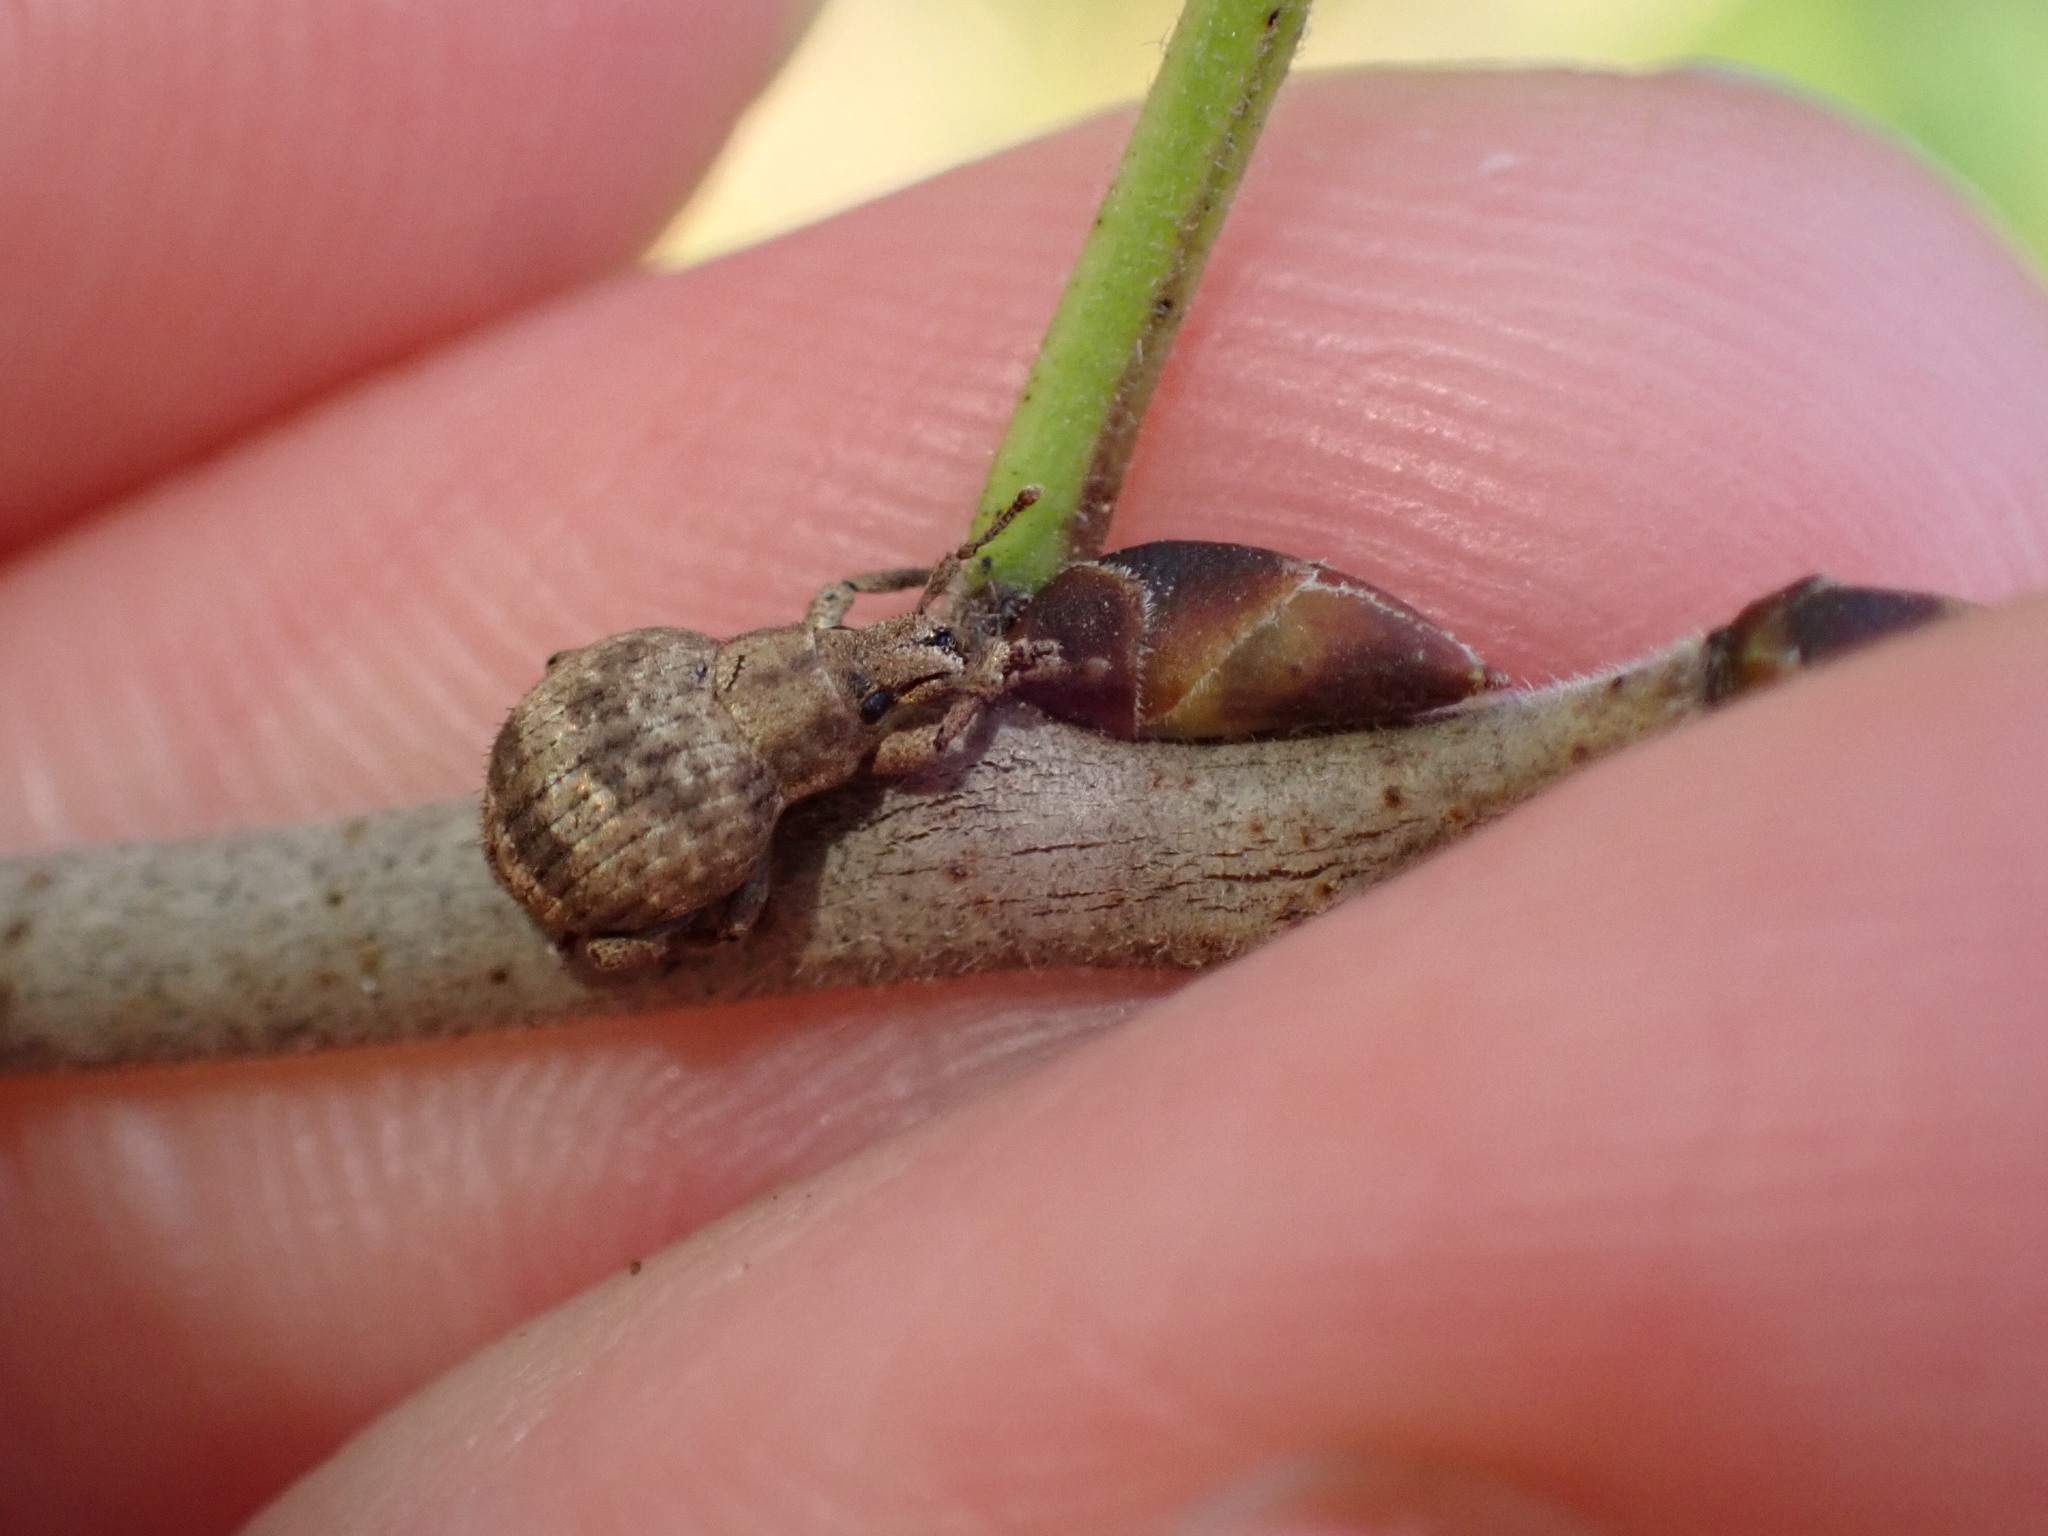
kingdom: Animalia
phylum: Arthropoda
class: Insecta
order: Coleoptera
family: Curculionidae
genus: Pseudocneorhinus
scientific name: Pseudocneorhinus bifasciatus
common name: Two-banded japanese weevil
